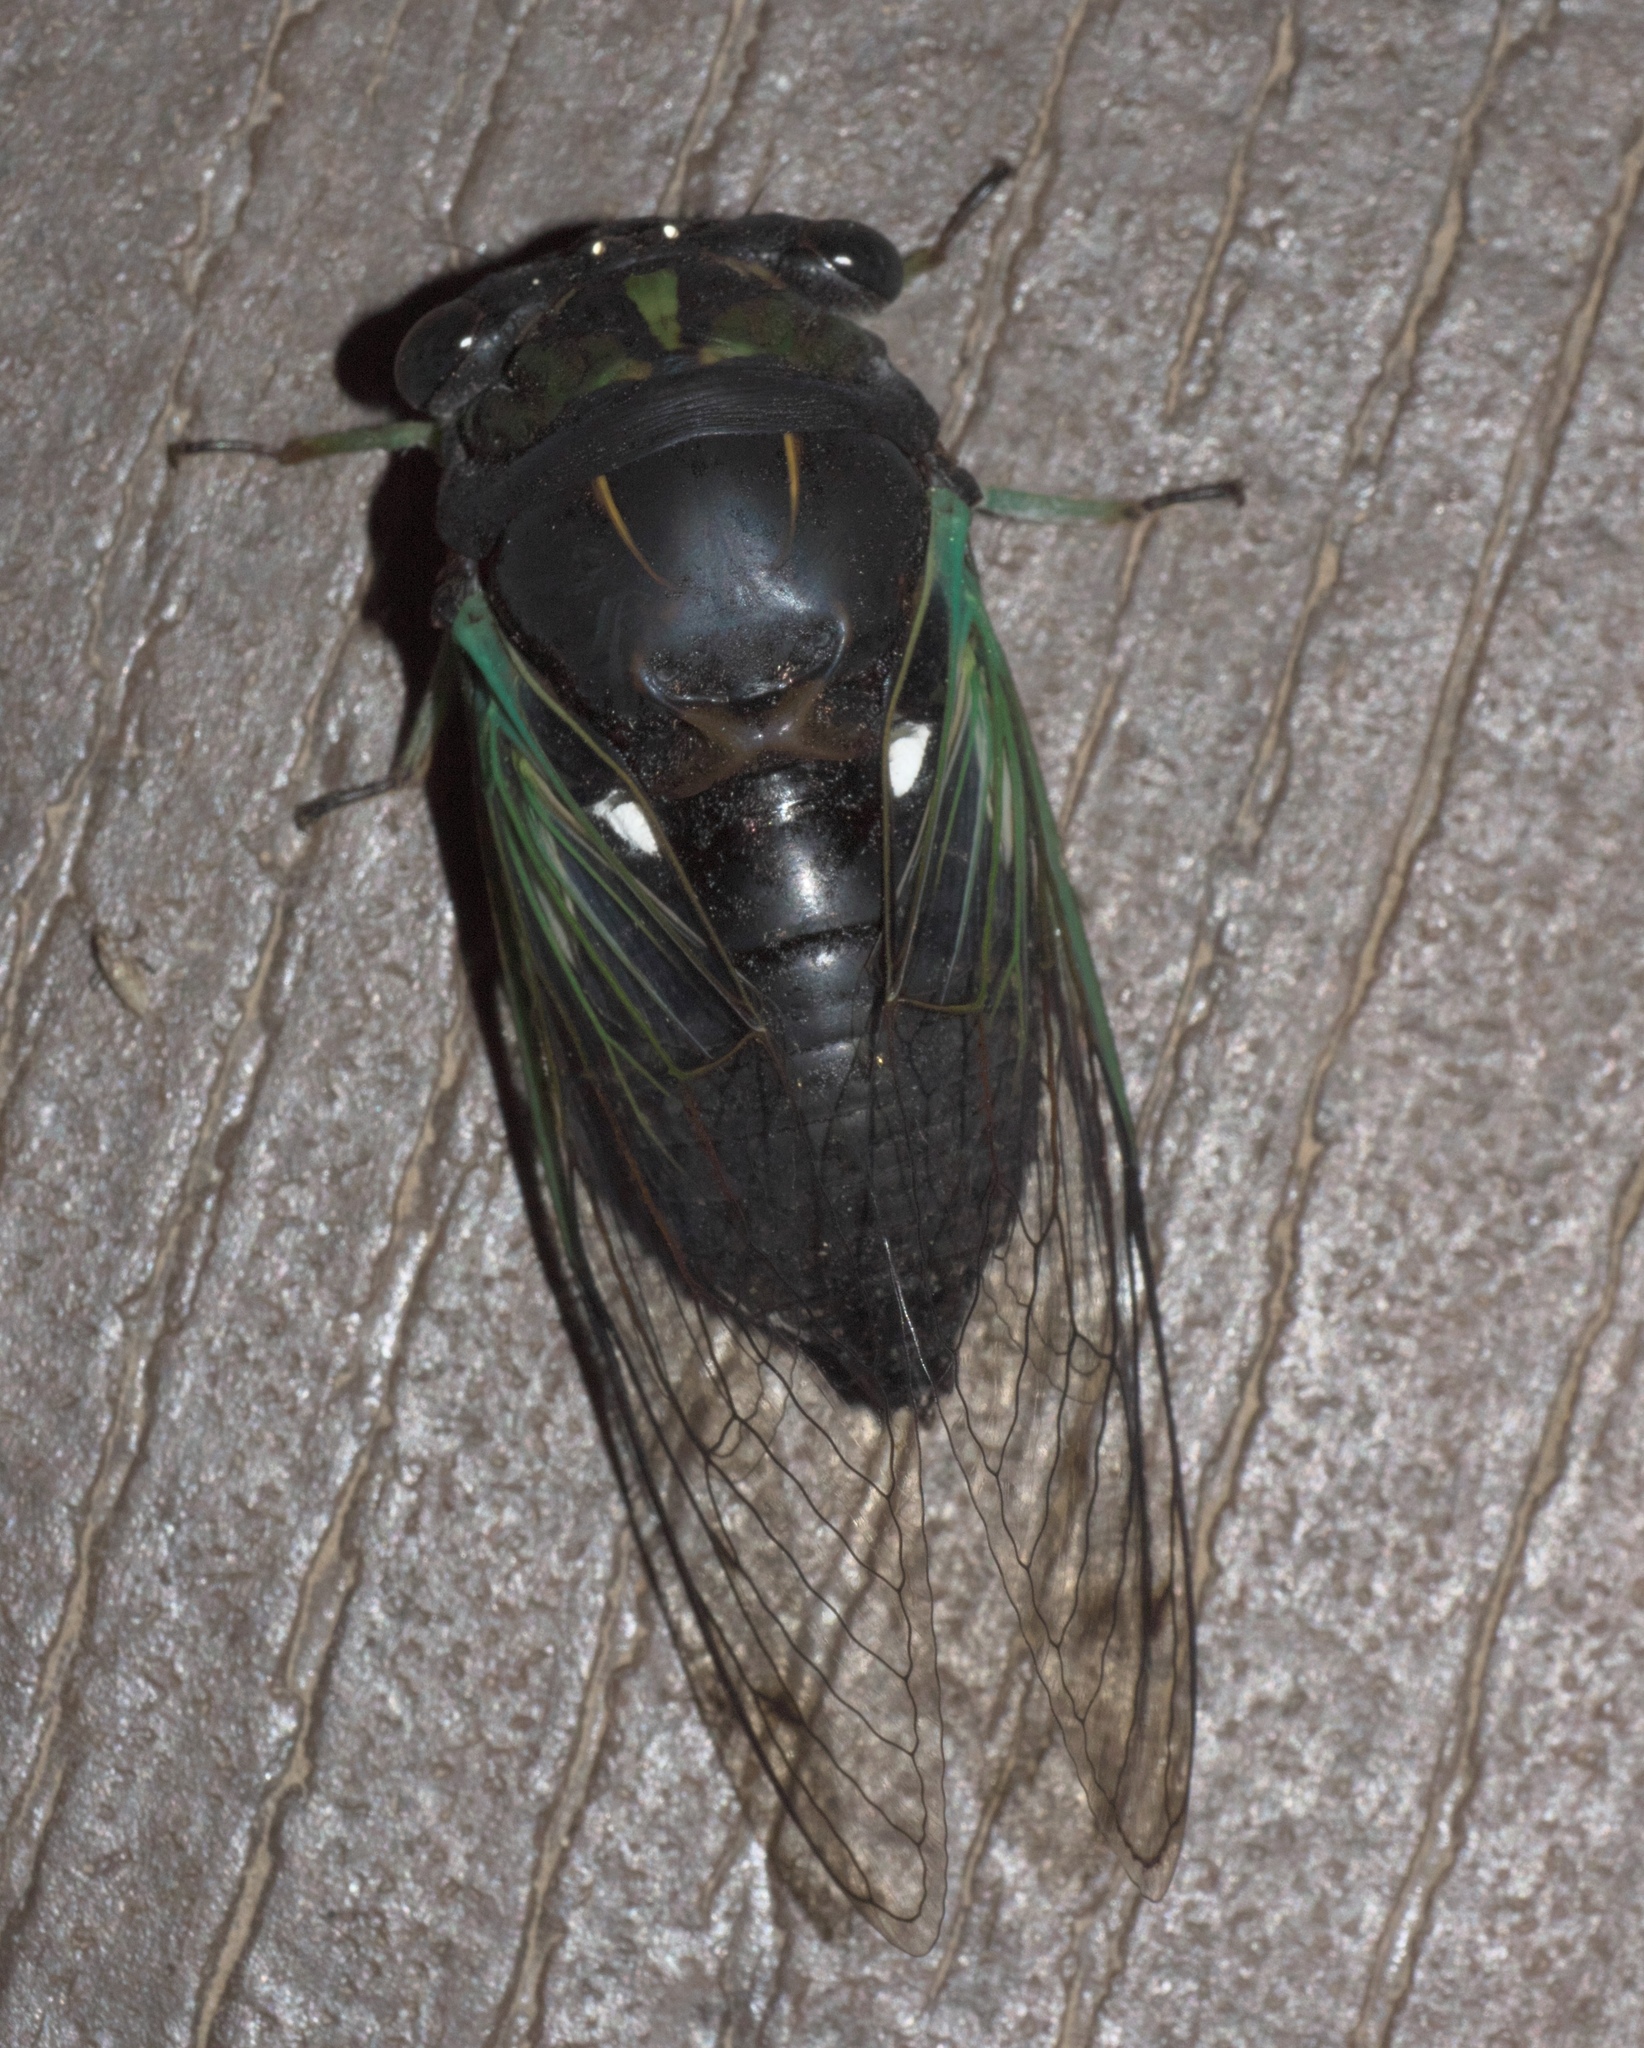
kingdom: Animalia
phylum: Arthropoda
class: Insecta
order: Hemiptera
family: Cicadidae
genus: Neotibicen
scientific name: Neotibicen tibicen
